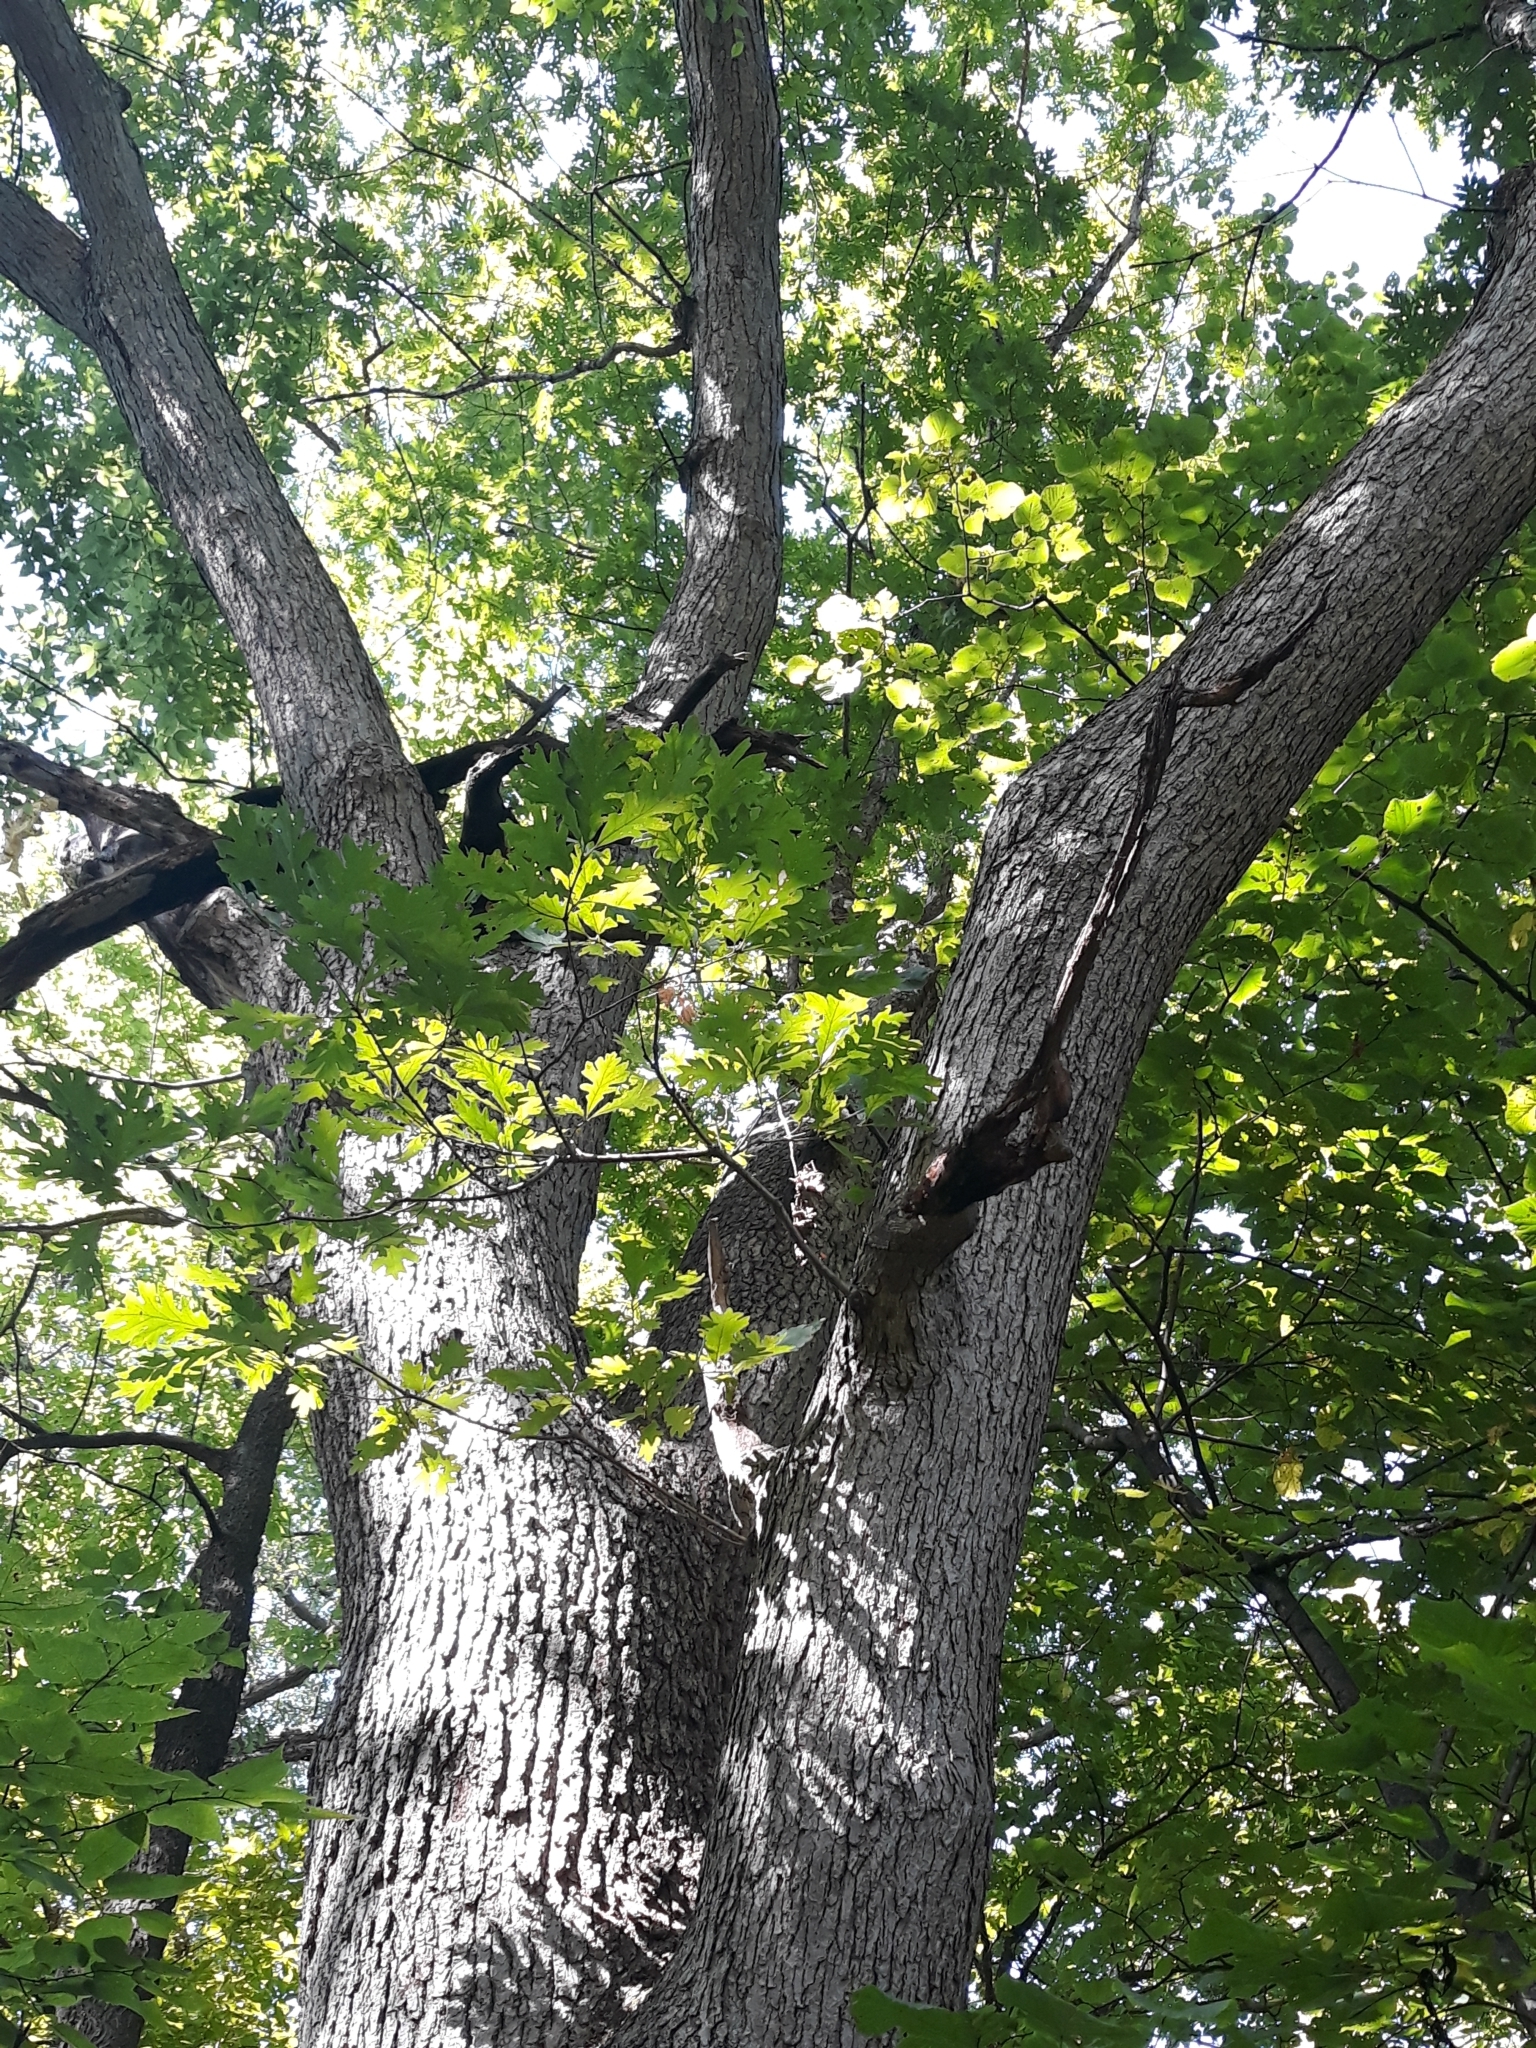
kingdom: Plantae
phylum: Tracheophyta
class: Magnoliopsida
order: Fagales
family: Fagaceae
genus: Quercus
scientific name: Quercus alba
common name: White oak
